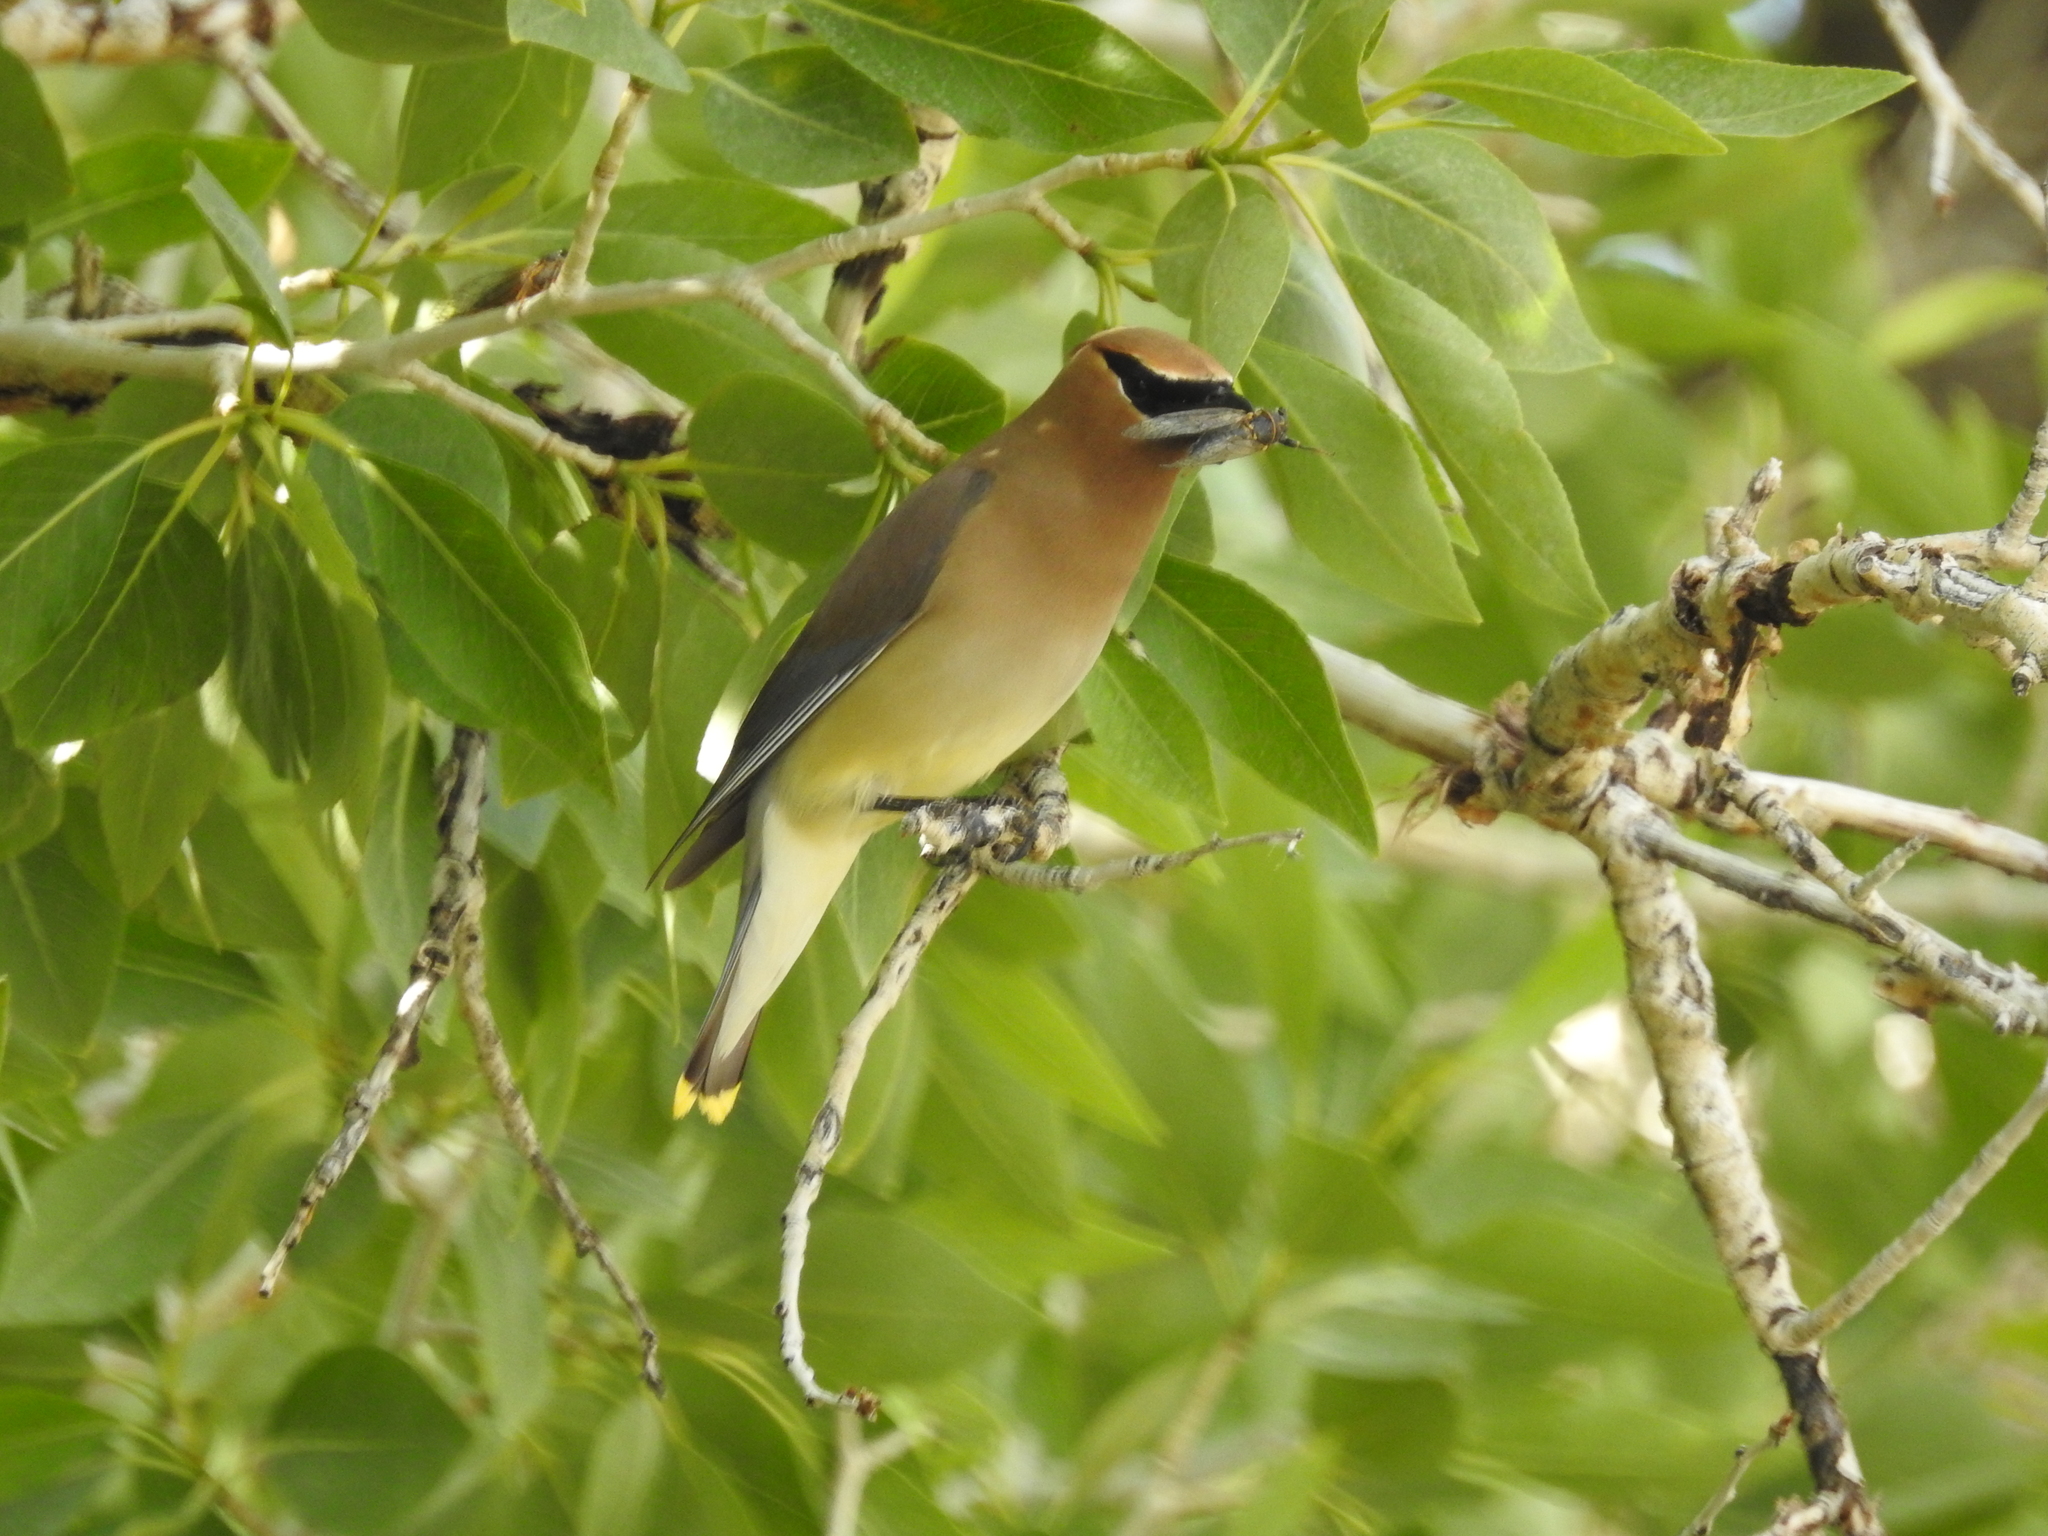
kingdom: Animalia
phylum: Chordata
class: Aves
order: Passeriformes
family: Bombycillidae
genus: Bombycilla
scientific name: Bombycilla cedrorum
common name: Cedar waxwing
